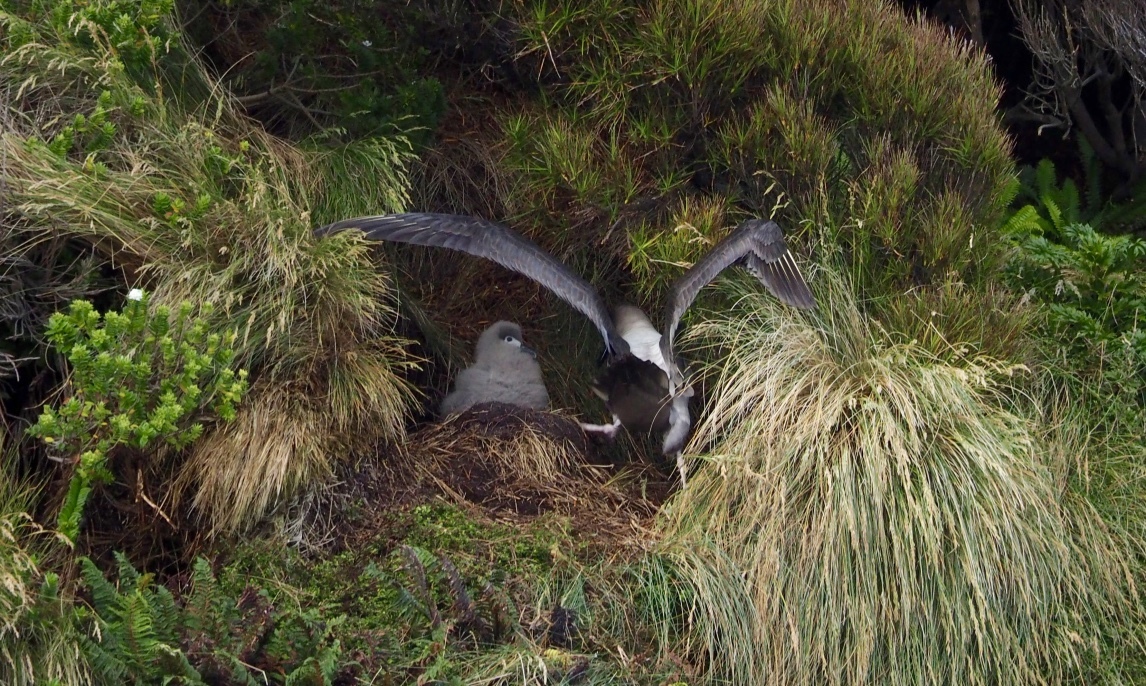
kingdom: Animalia
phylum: Chordata
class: Aves
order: Procellariiformes
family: Diomedeidae
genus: Phoebetria
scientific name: Phoebetria palpebrata
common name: Light-mantled albatross
